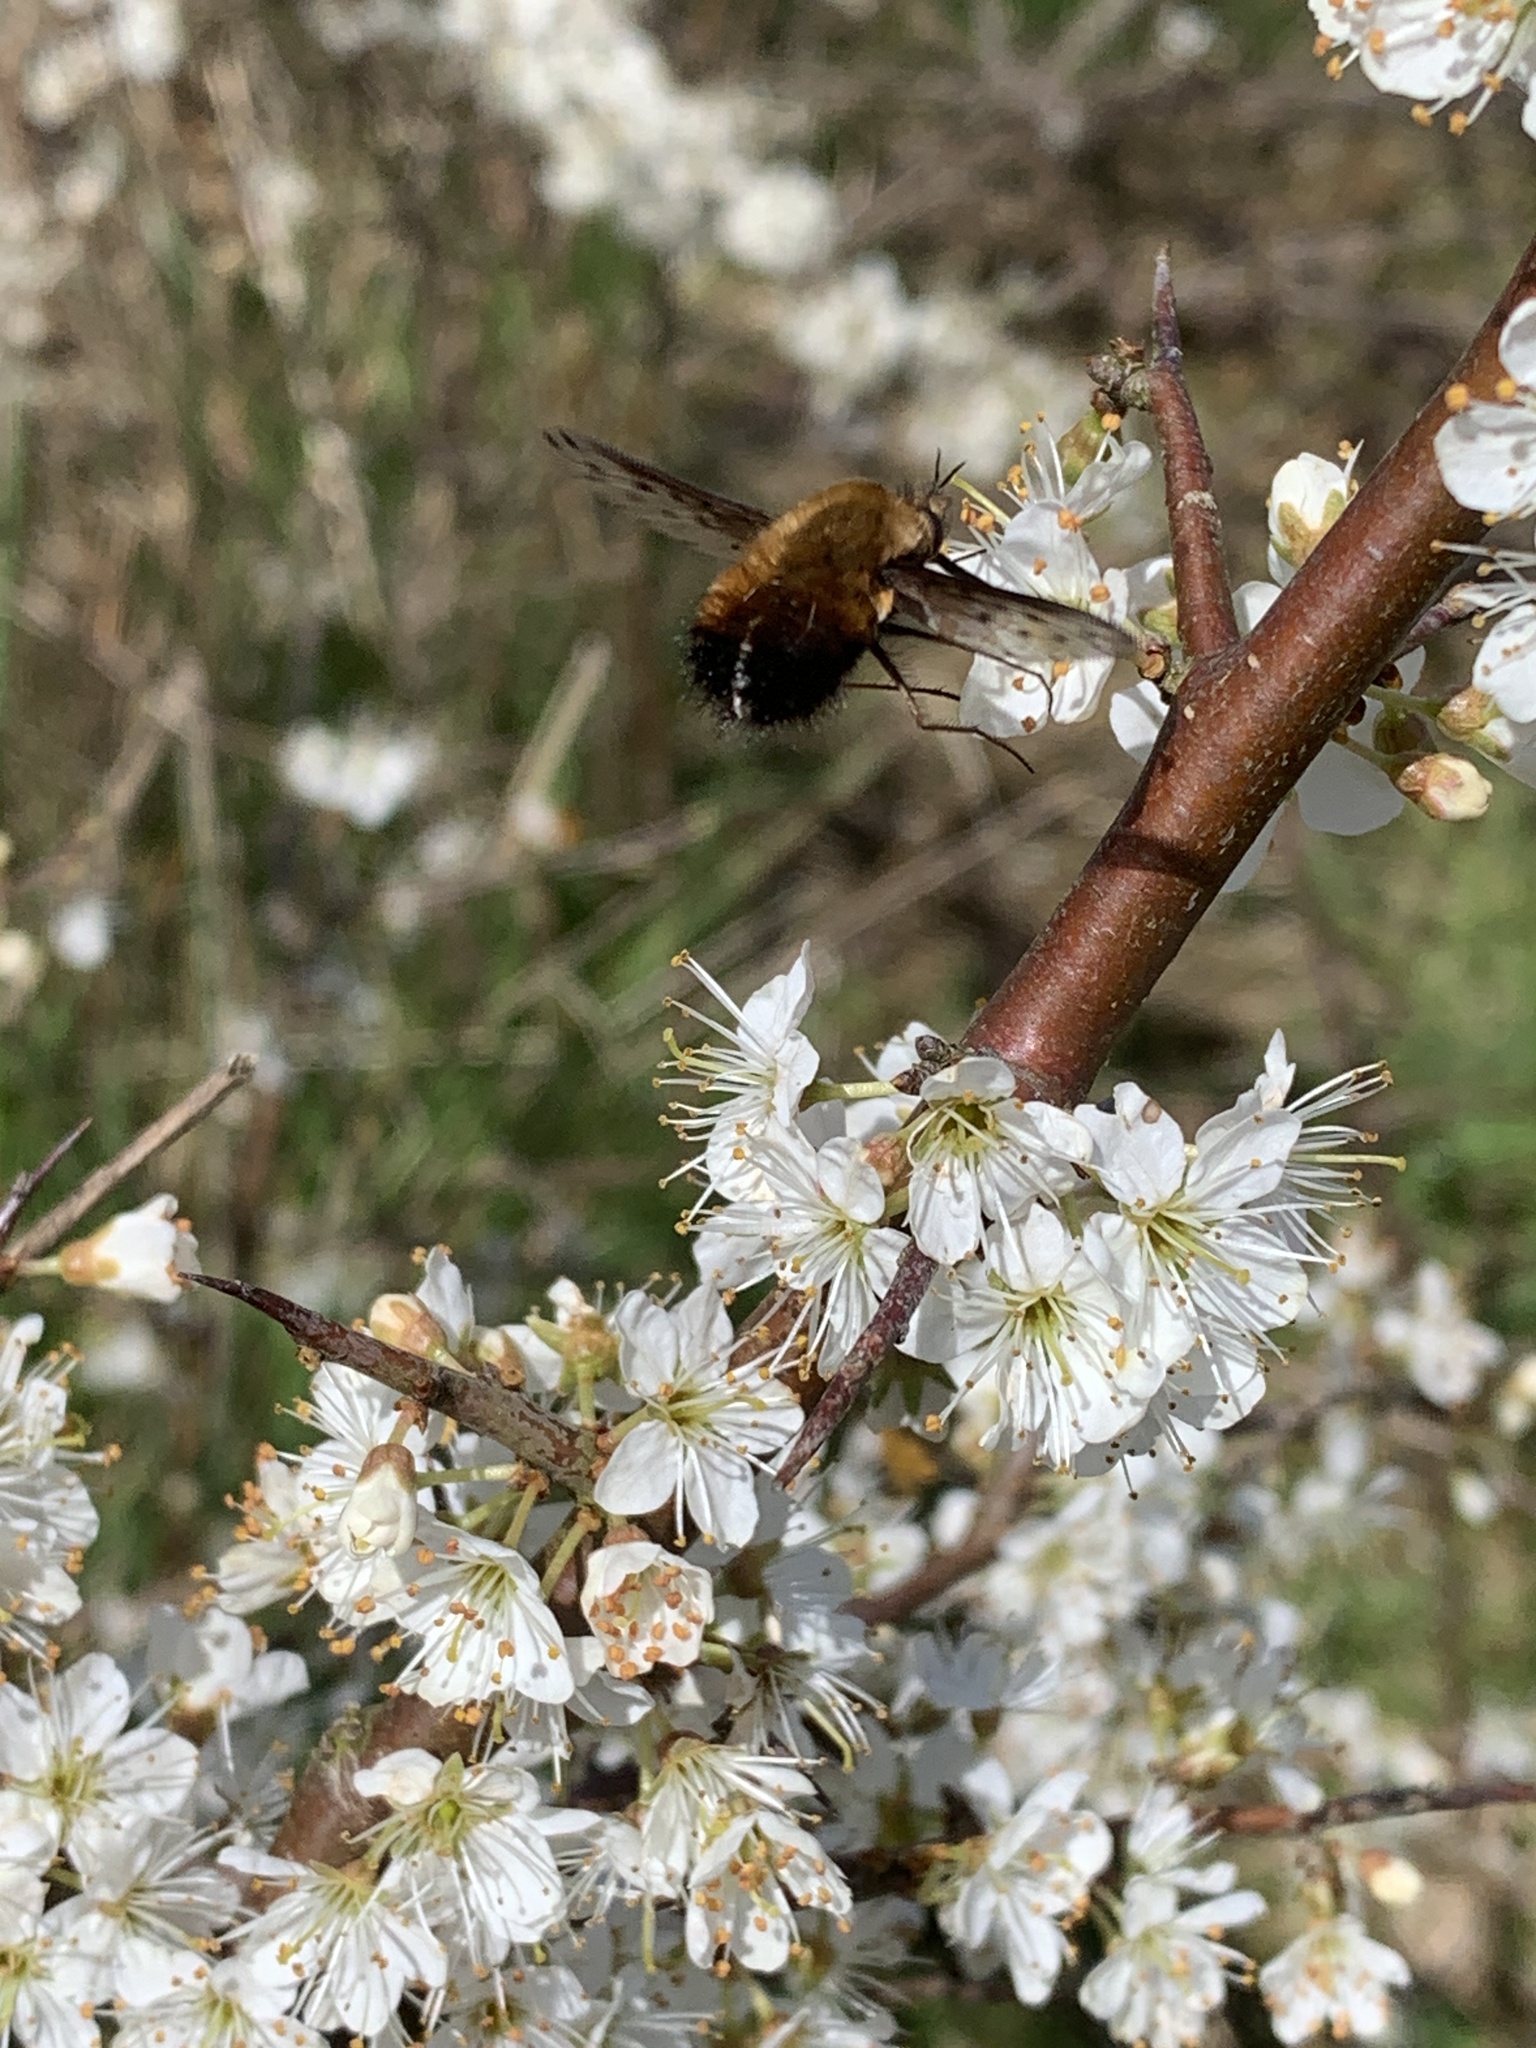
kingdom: Animalia
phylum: Arthropoda
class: Insecta
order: Diptera
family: Bombyliidae
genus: Bombylius
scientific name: Bombylius discolor
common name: Dotted bee-fly
